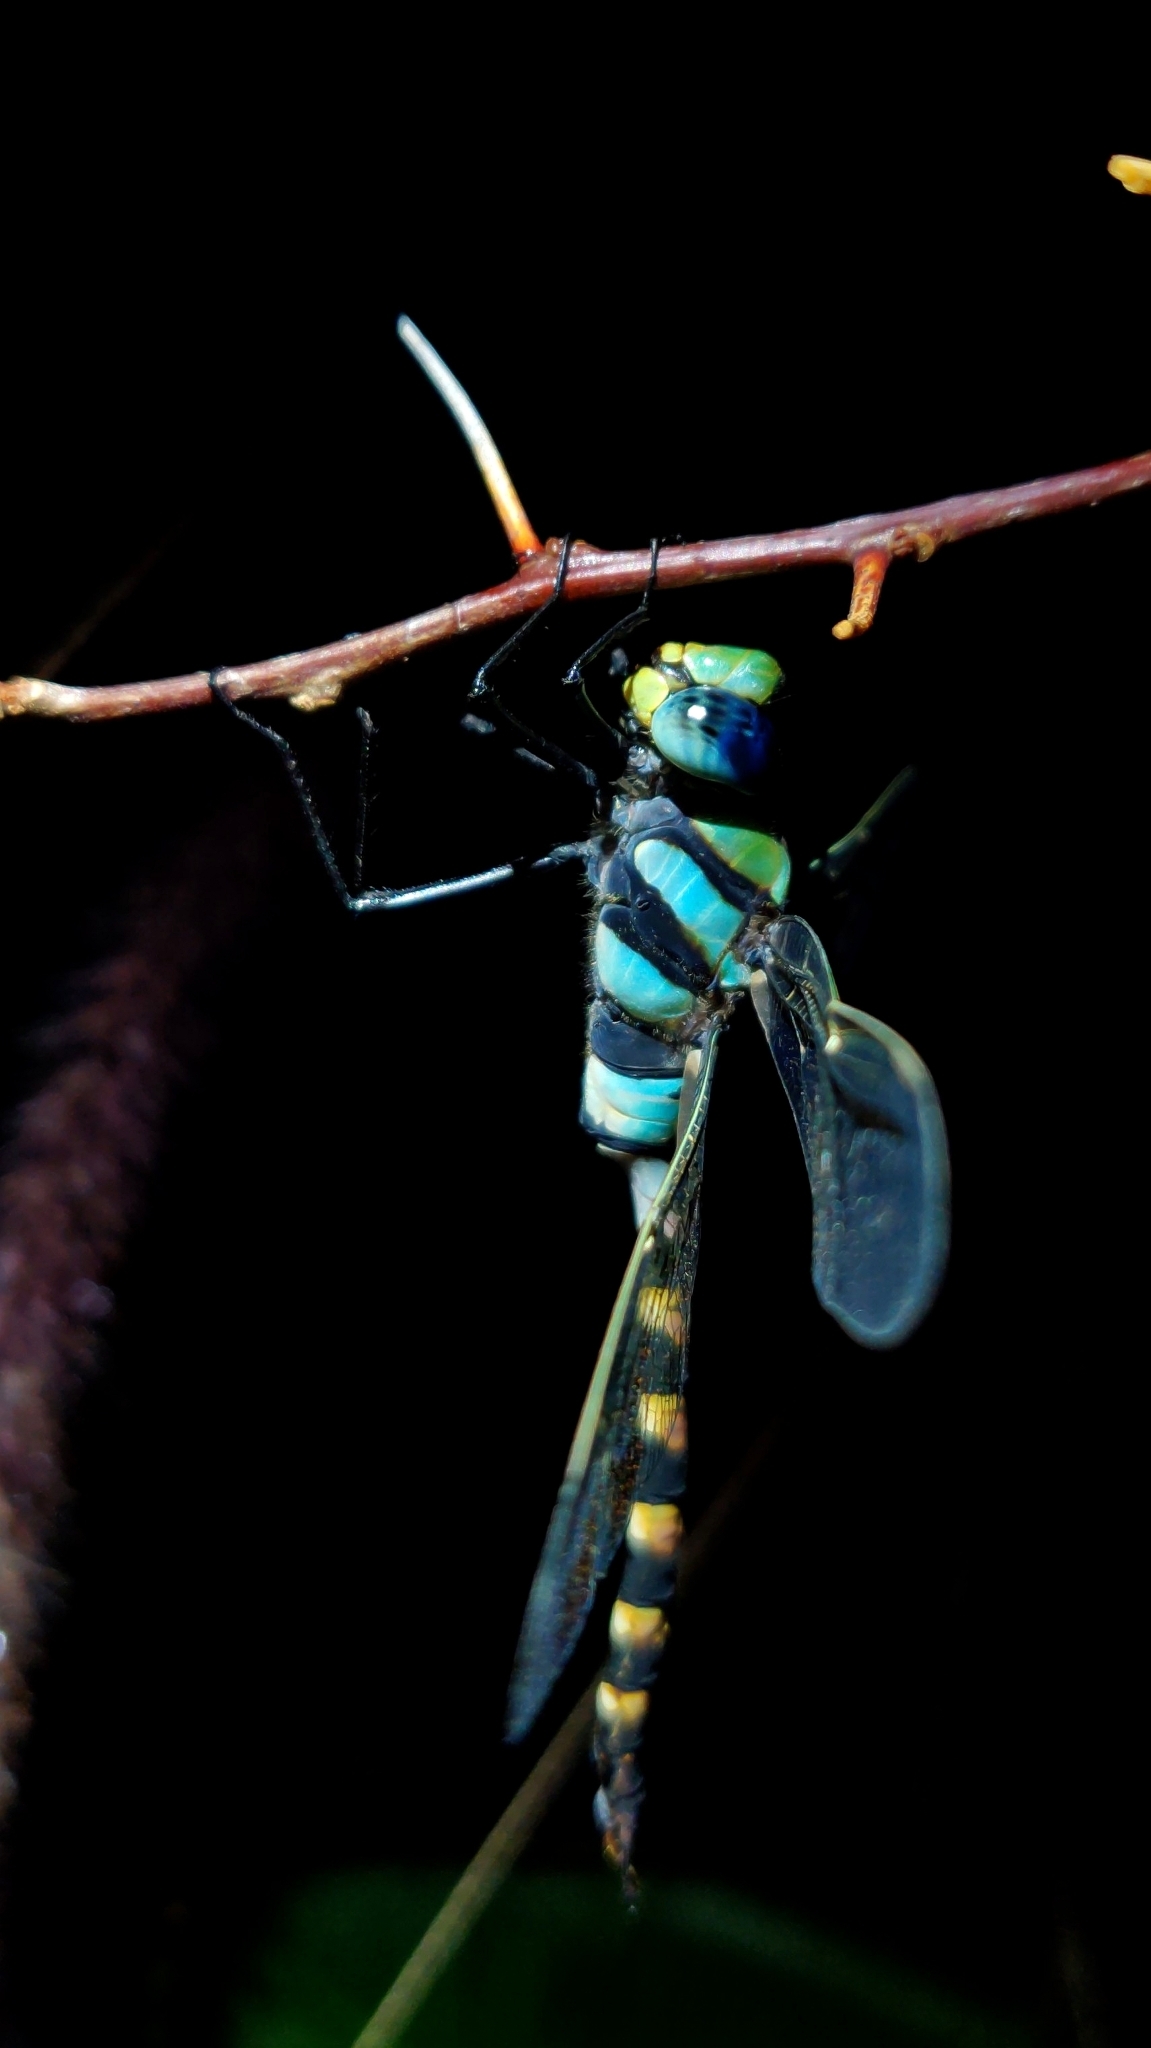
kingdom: Animalia
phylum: Arthropoda
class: Insecta
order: Odonata
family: Aeshnidae
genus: Anax
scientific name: Anax immaculifrons
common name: Magnificent emperor
